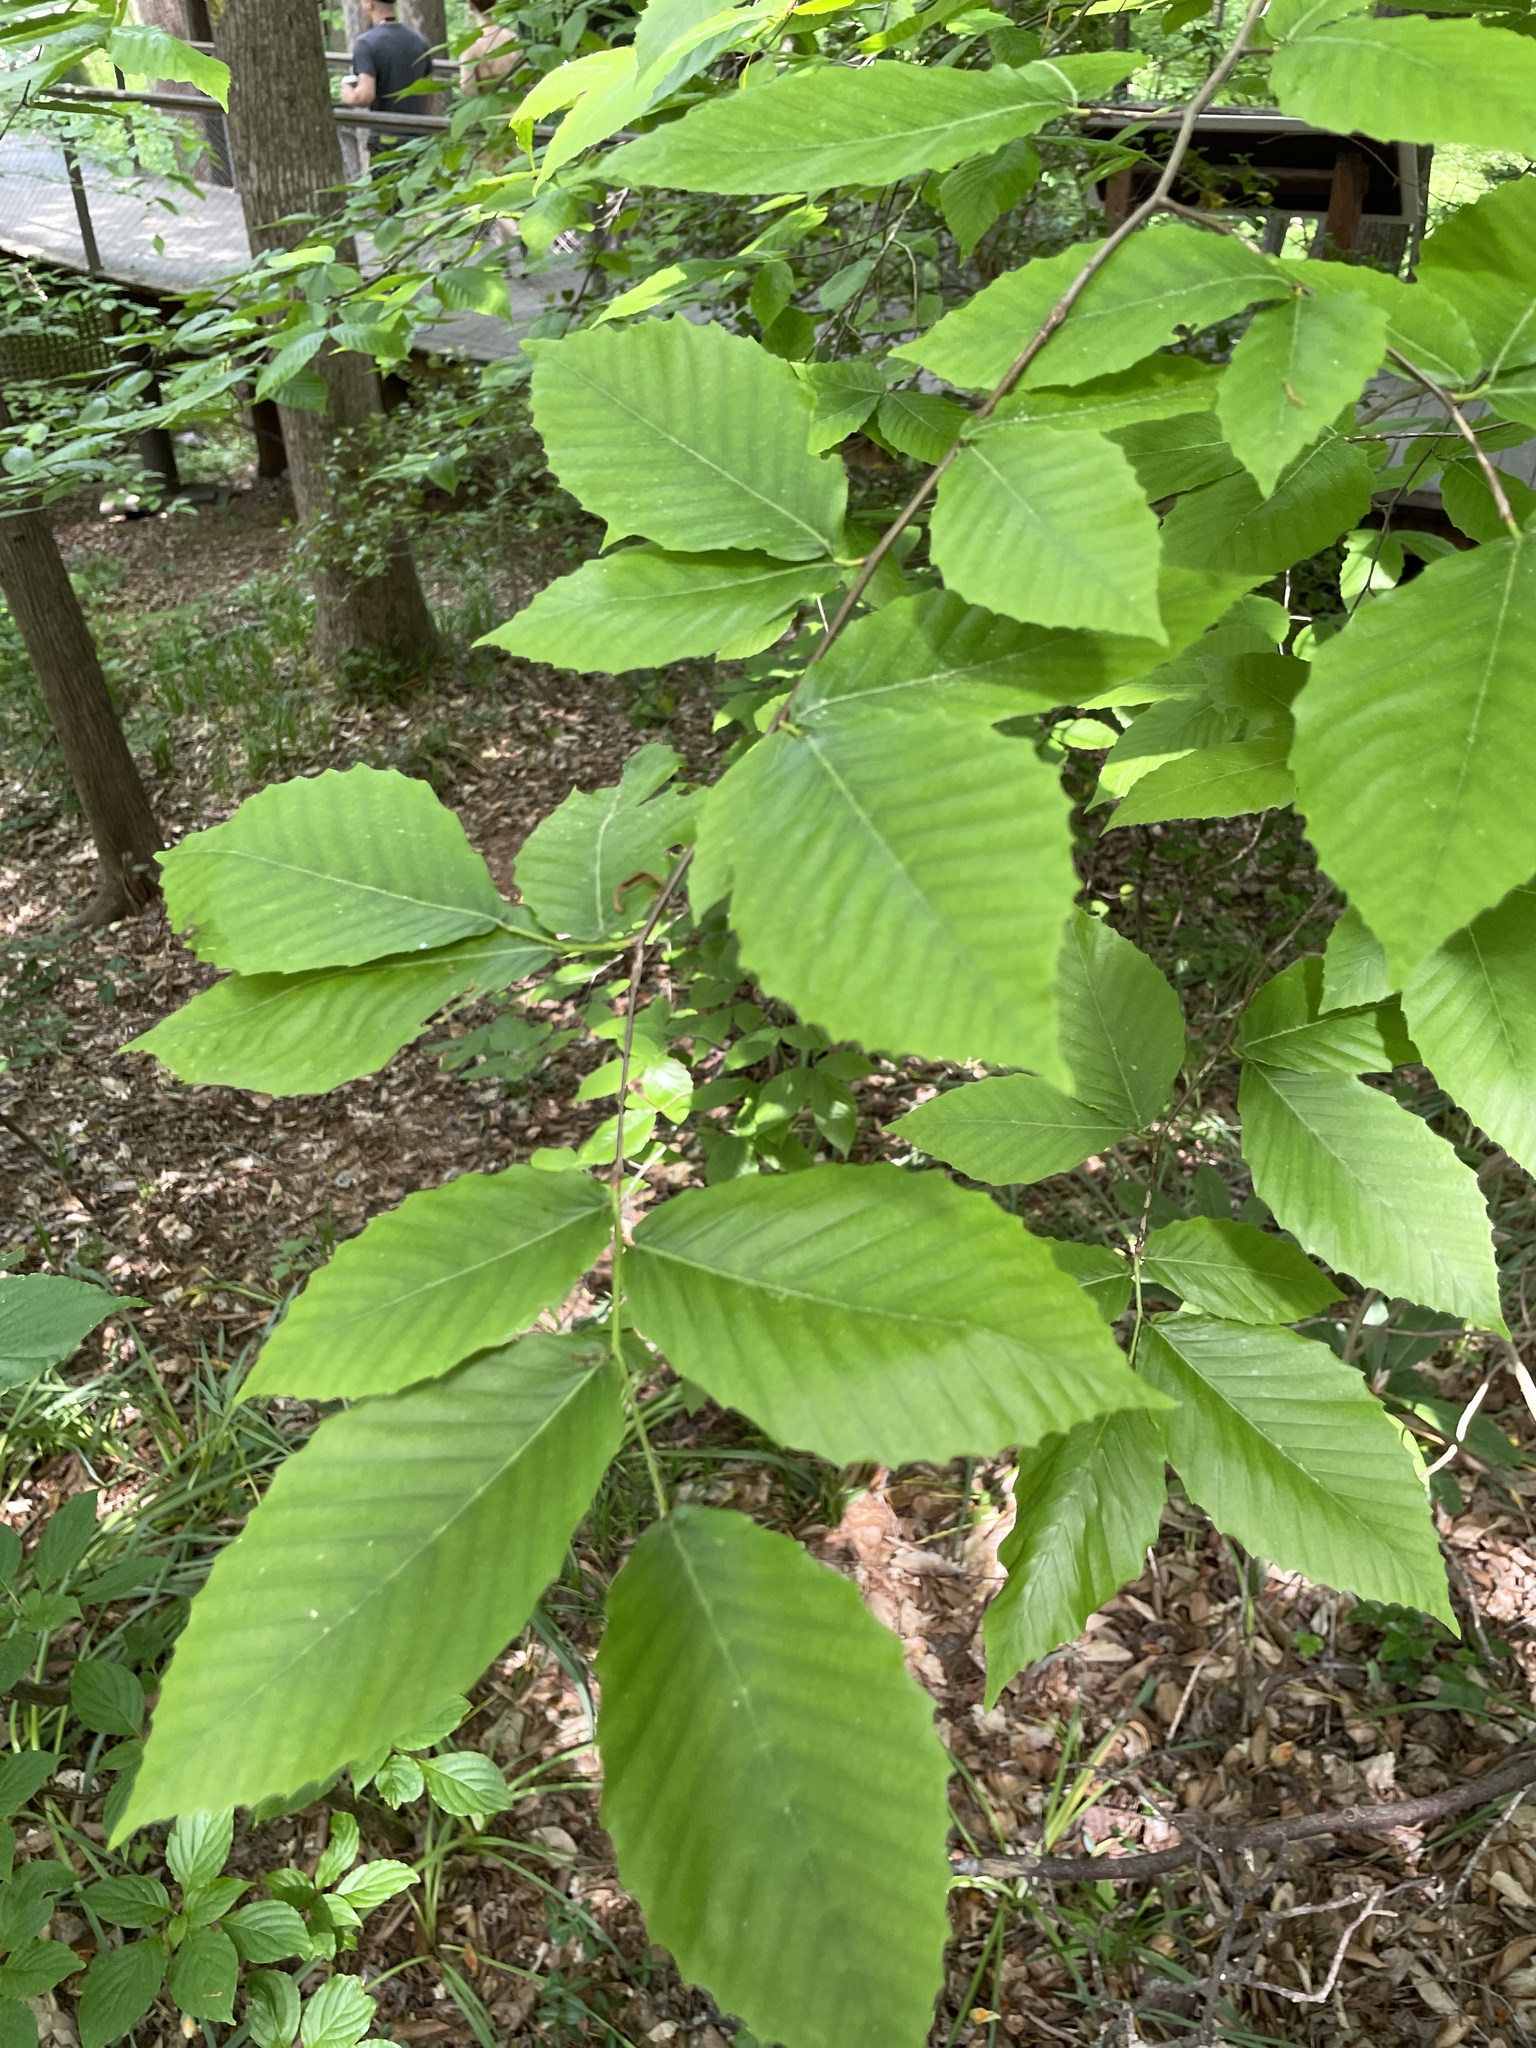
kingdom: Plantae
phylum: Tracheophyta
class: Magnoliopsida
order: Fagales
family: Fagaceae
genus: Fagus
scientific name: Fagus grandifolia
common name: American beech
